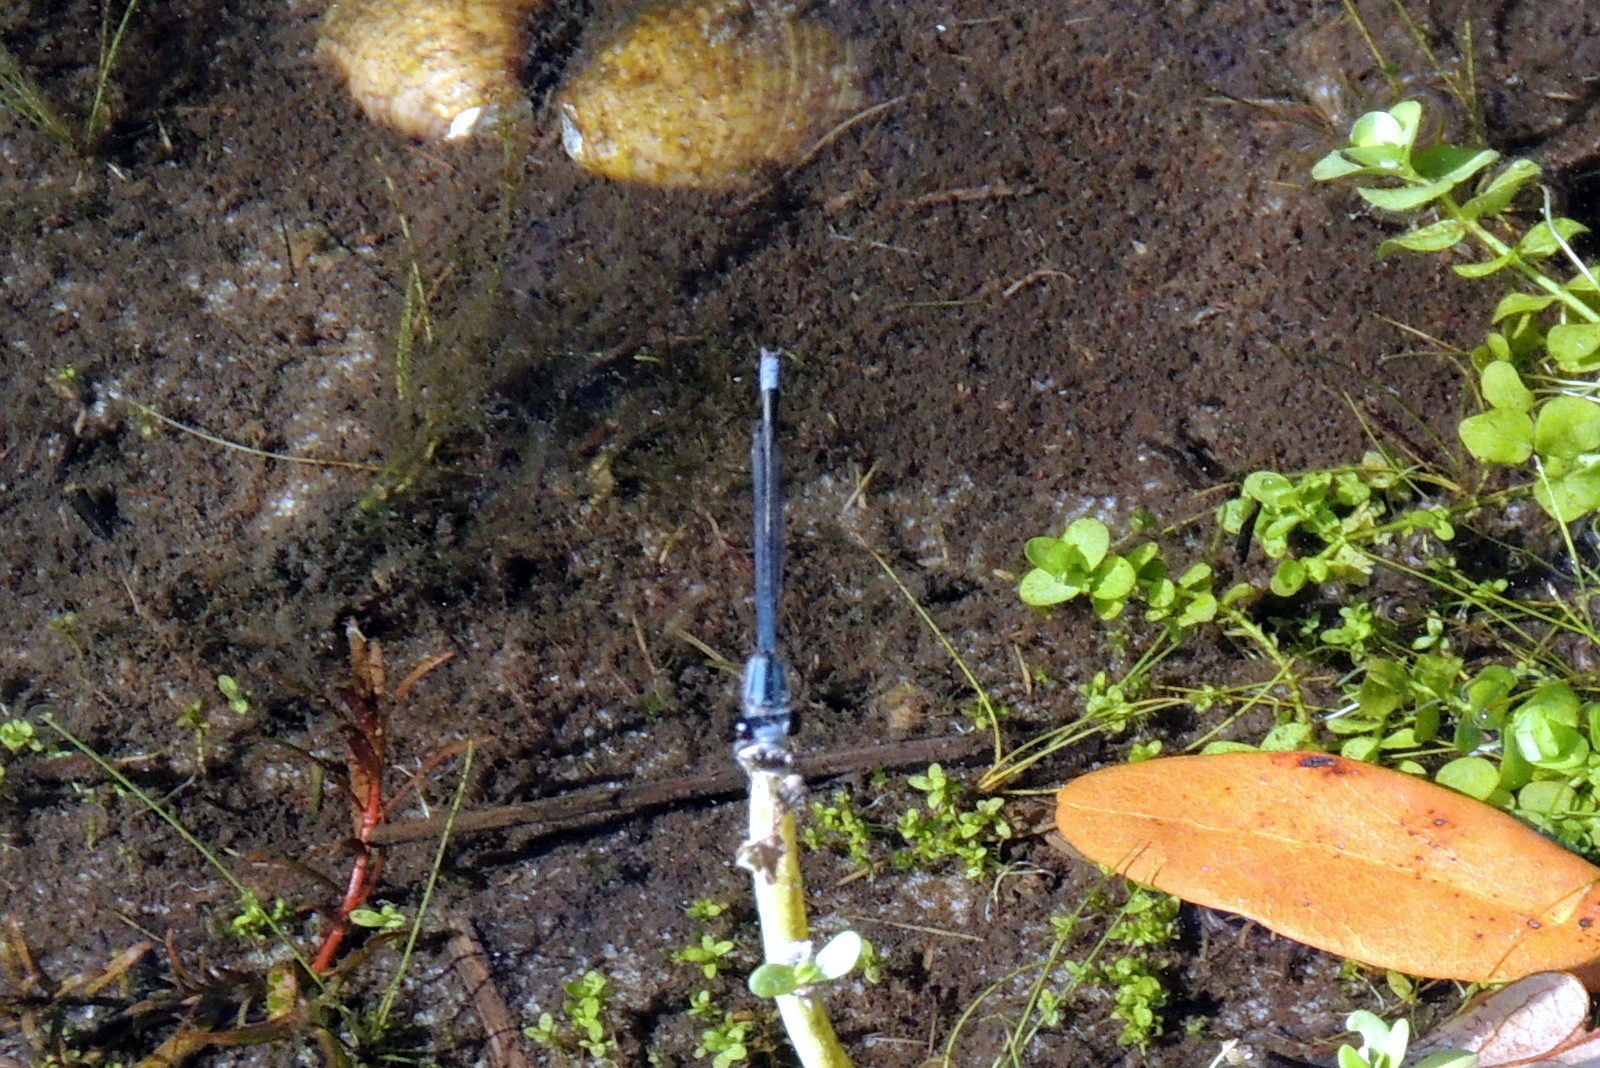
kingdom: Animalia
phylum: Arthropoda
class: Insecta
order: Odonata
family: Coenagrionidae
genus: Enallagma
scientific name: Enallagma cardenium
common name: Purple bluet
